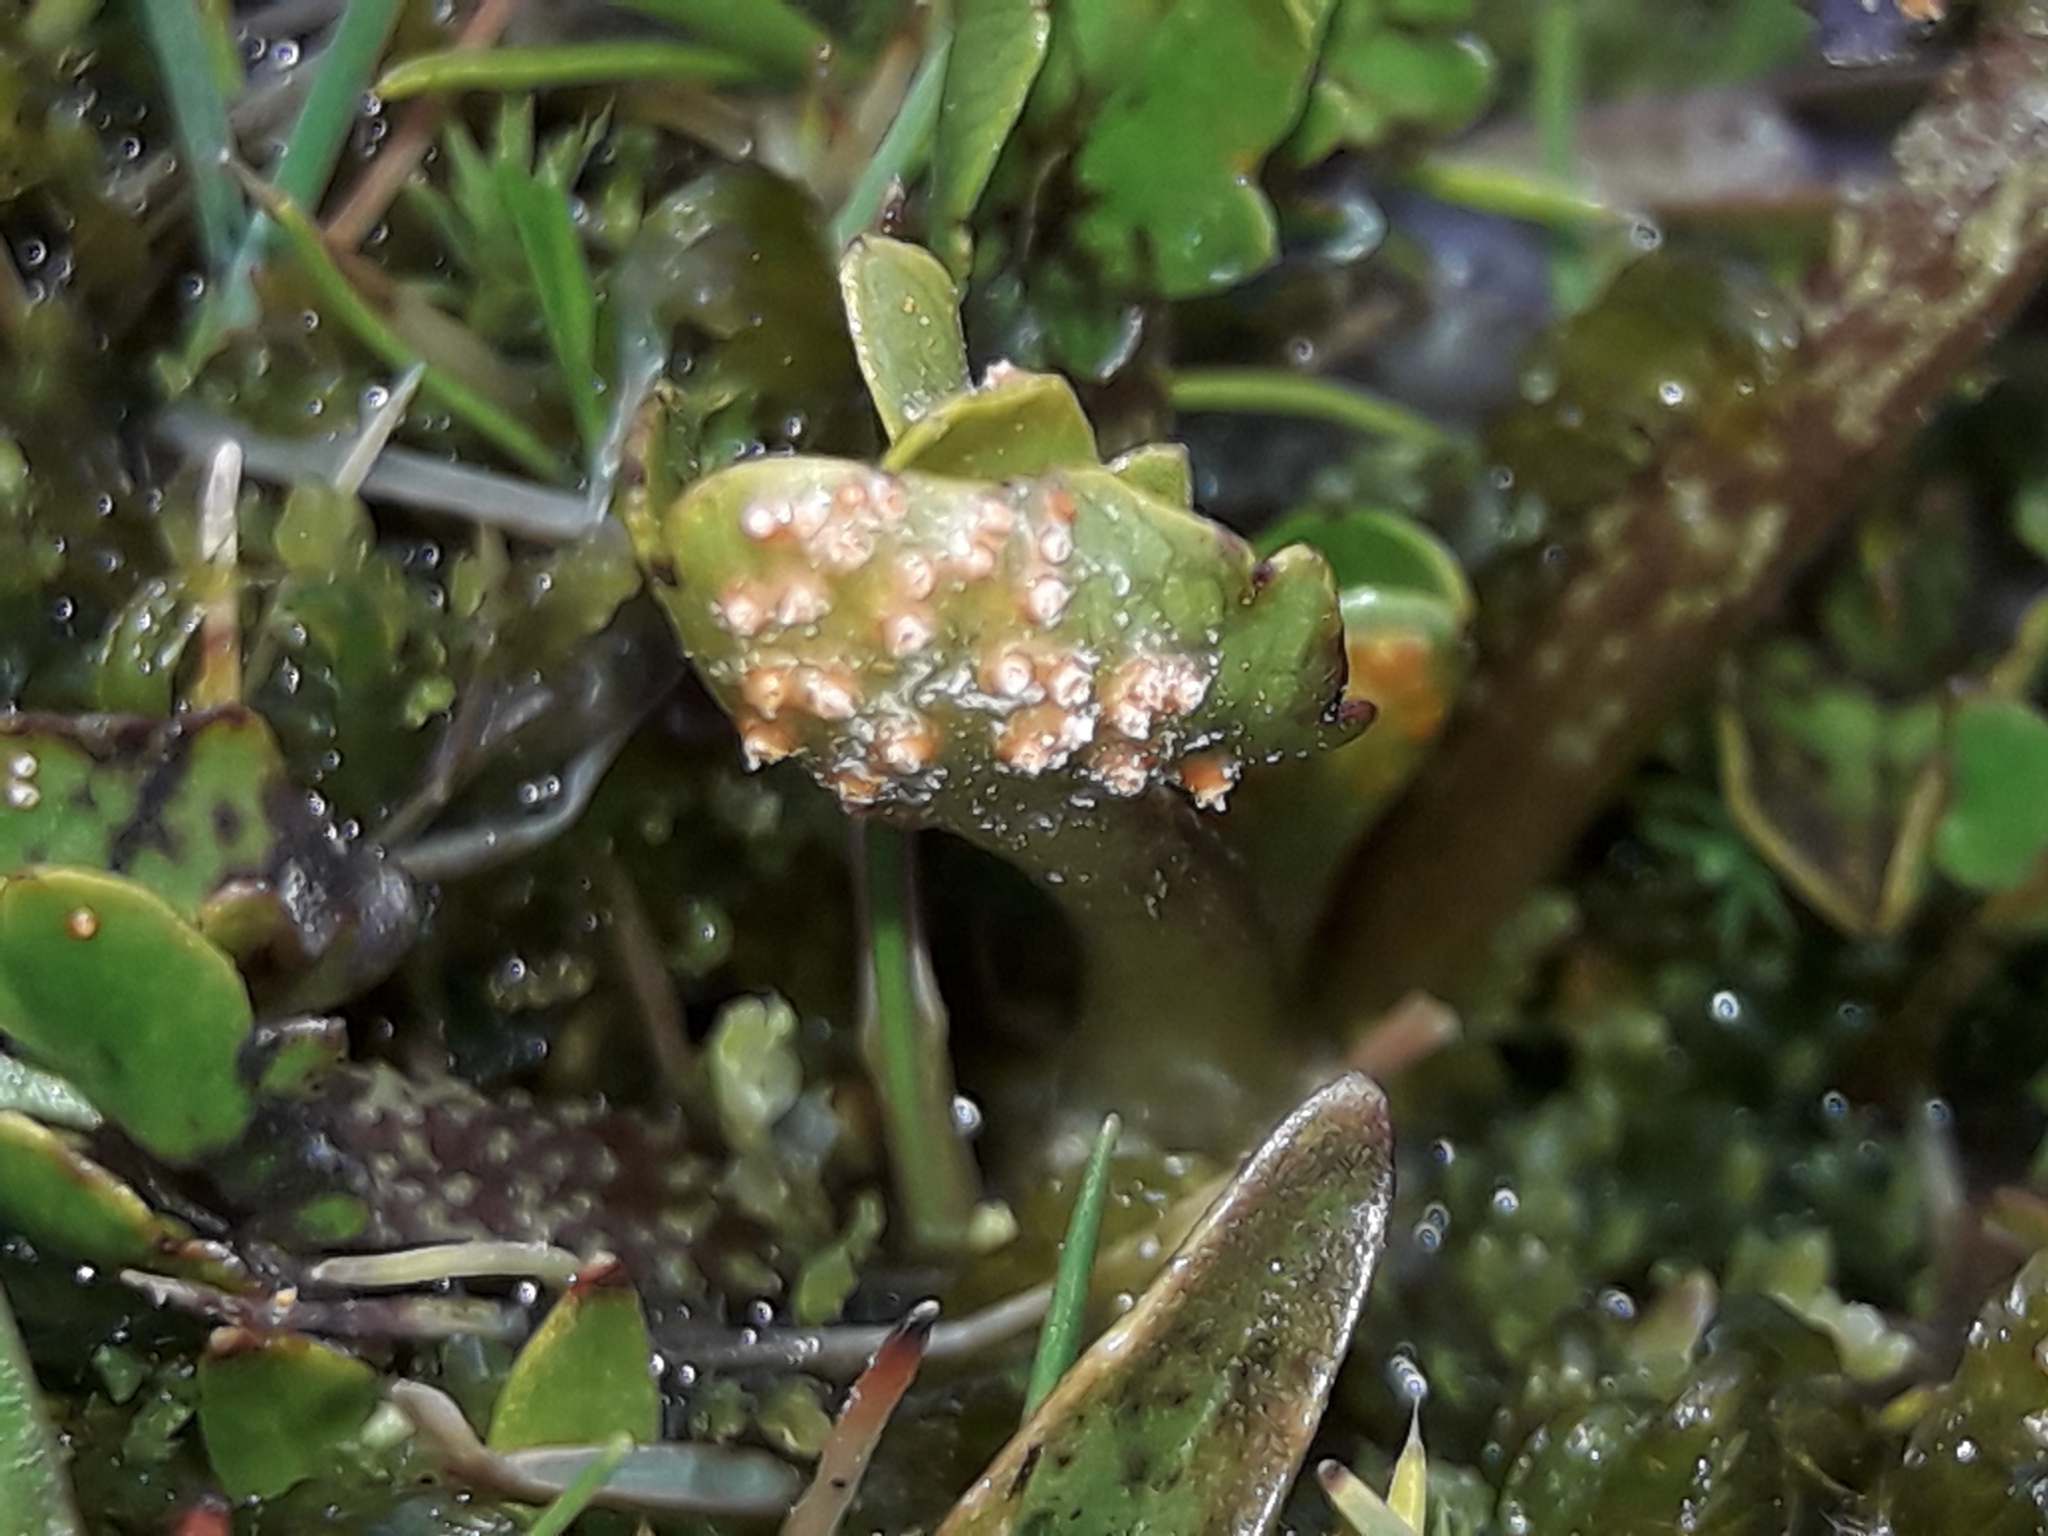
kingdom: Fungi
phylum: Basidiomycota
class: Pucciniomycetes
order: Pucciniales
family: Pucciniaceae
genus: Aecidium
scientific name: Aecidium westlandicum
